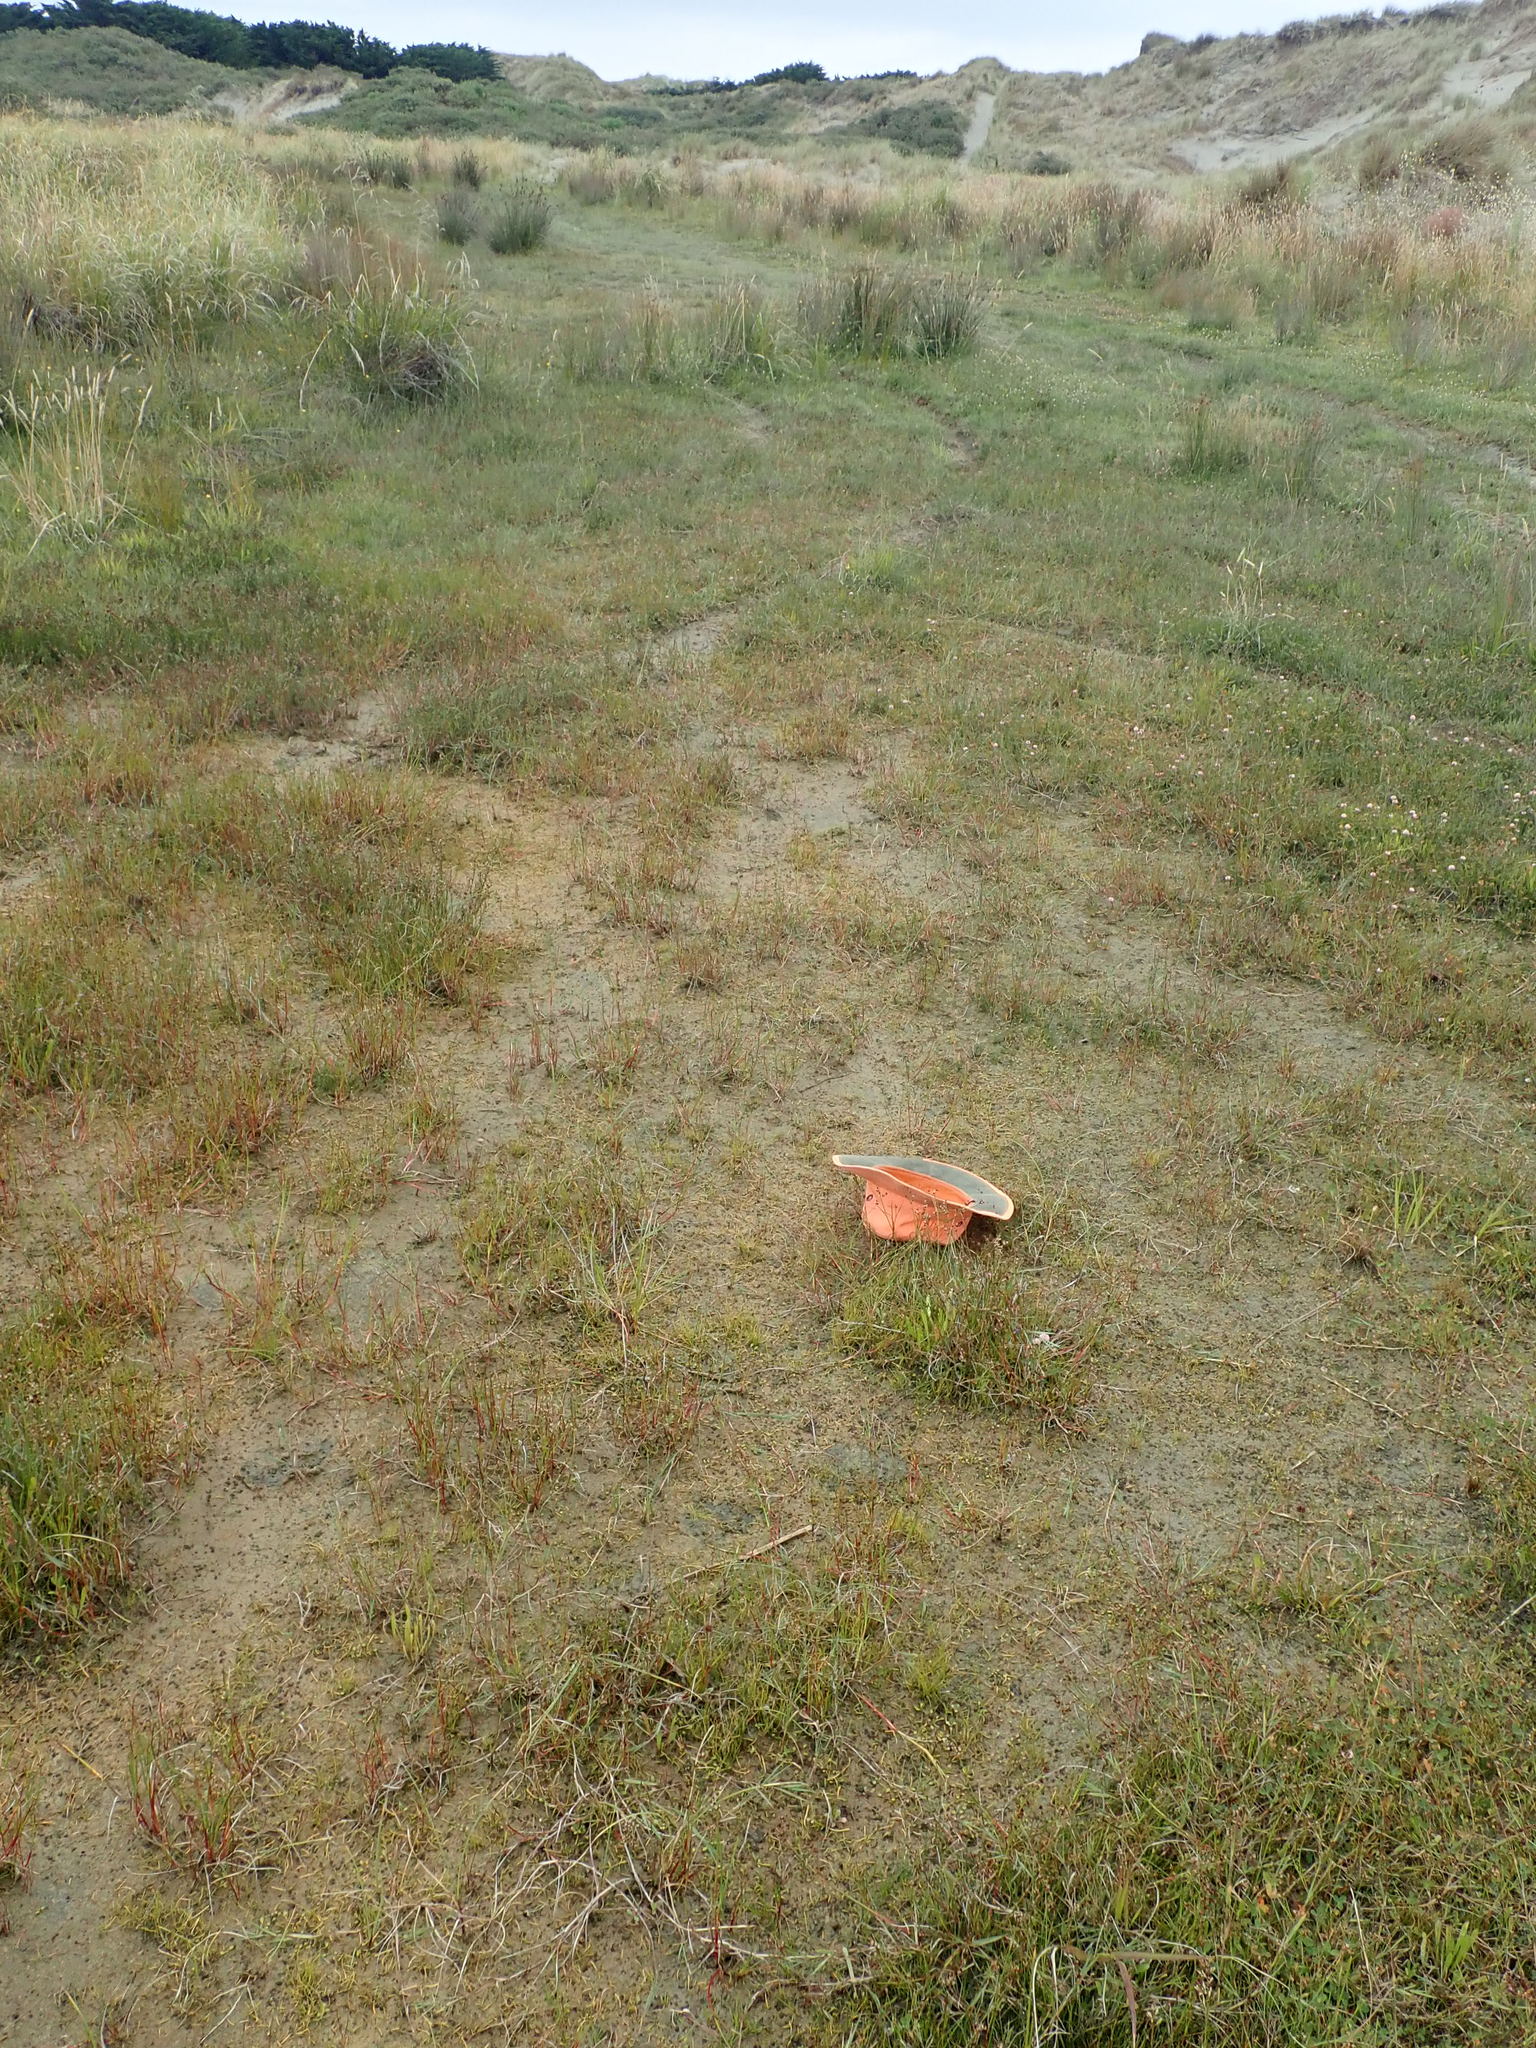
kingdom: Plantae
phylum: Tracheophyta
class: Magnoliopsida
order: Apiales
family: Apiaceae
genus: Lilaeopsis
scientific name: Lilaeopsis novae-zelandiae
